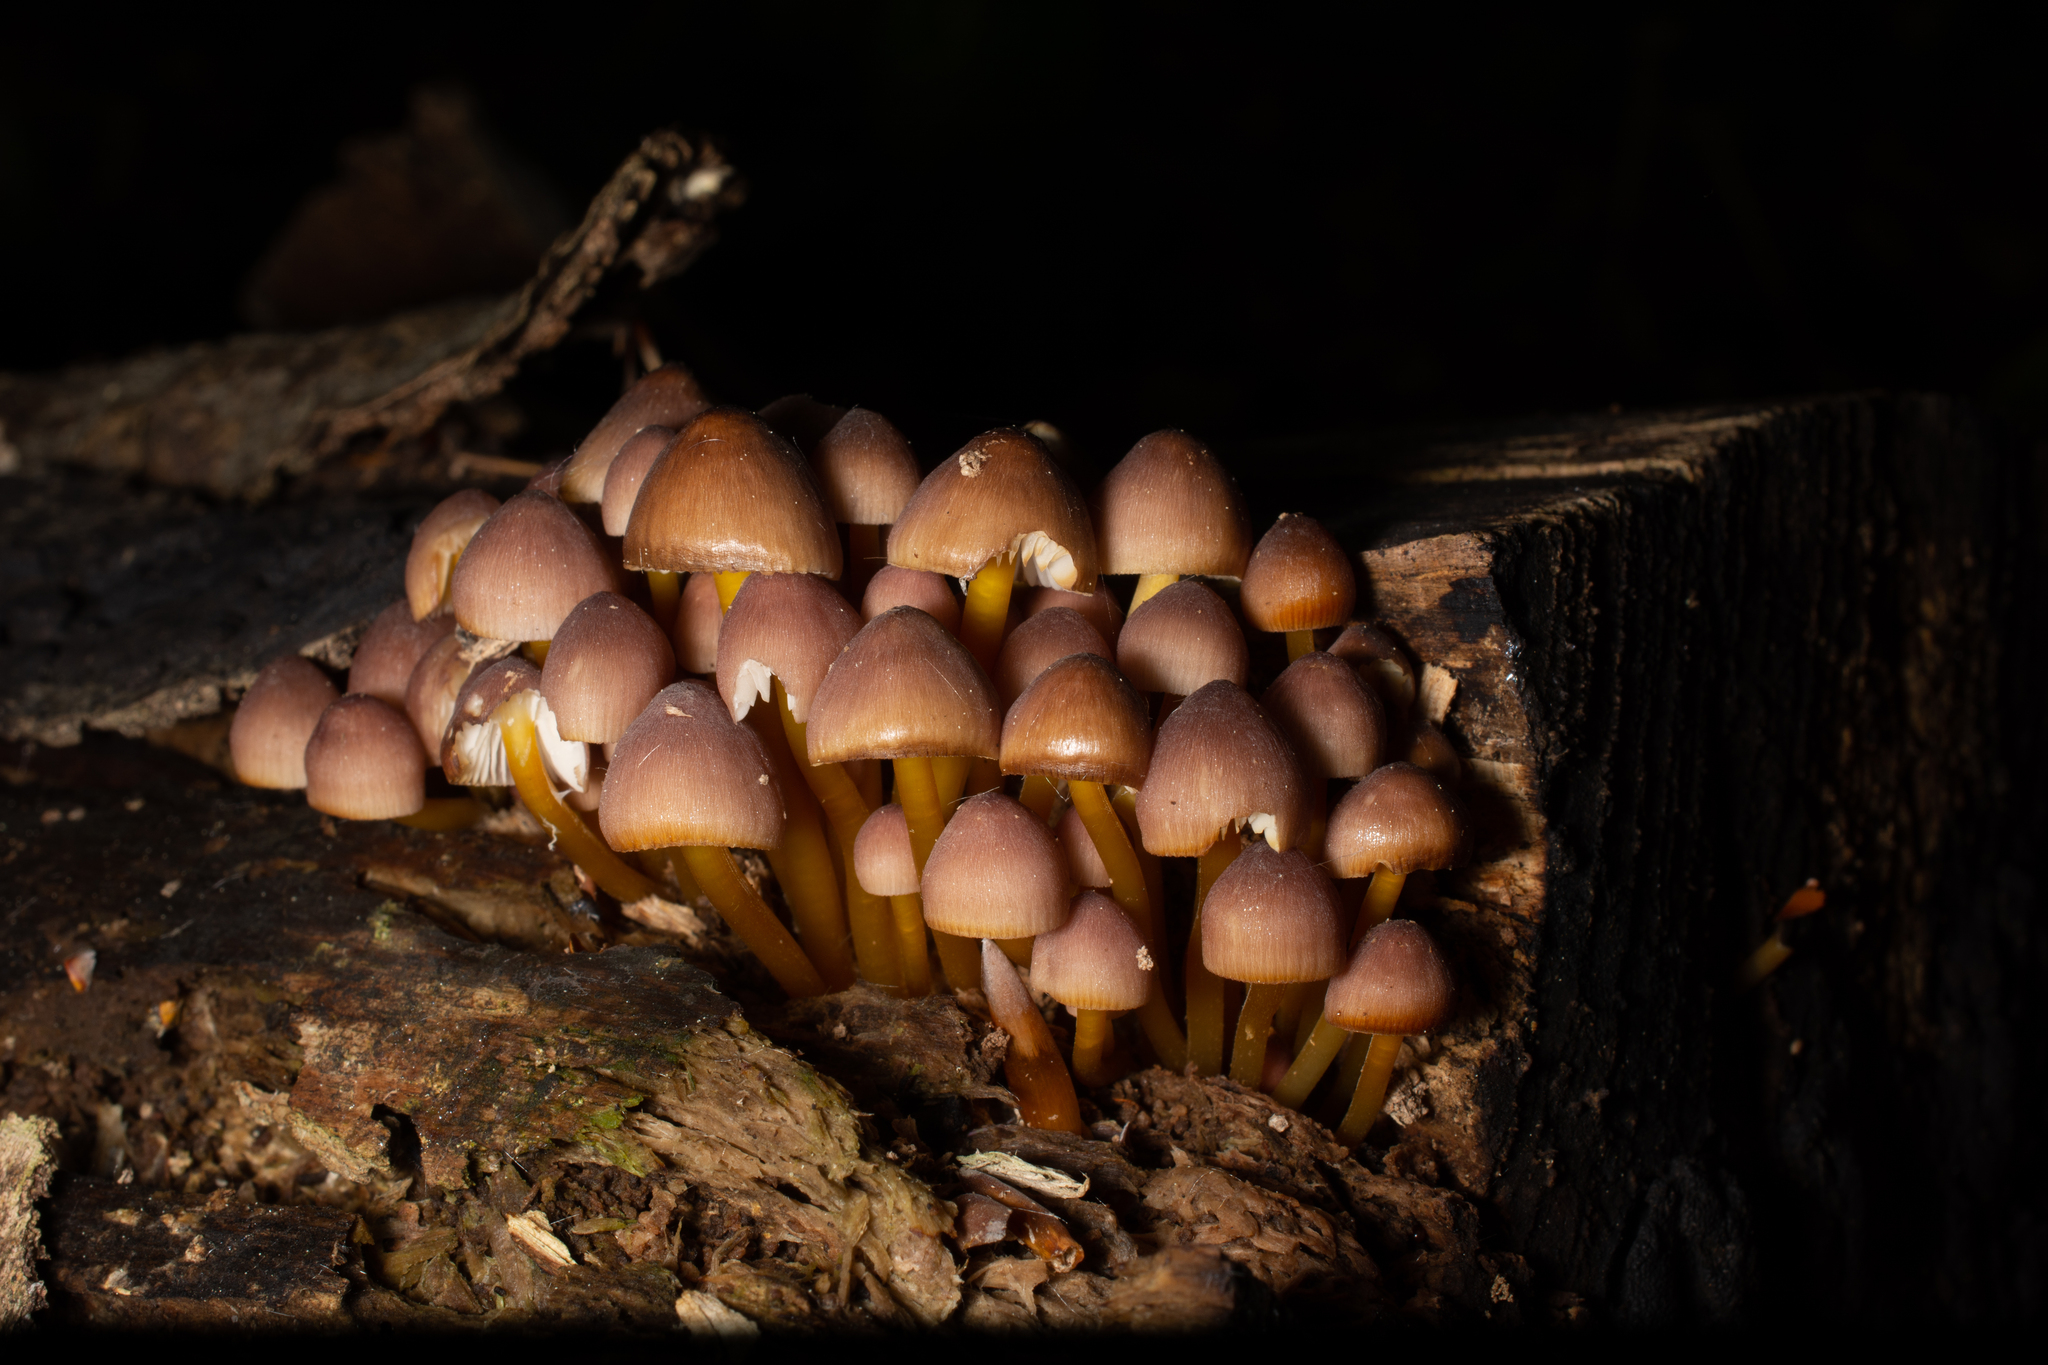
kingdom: Fungi
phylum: Basidiomycota
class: Agaricomycetes
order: Agaricales
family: Mycenaceae
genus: Mycena
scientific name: Mycena renati
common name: Beautiful bonnet
